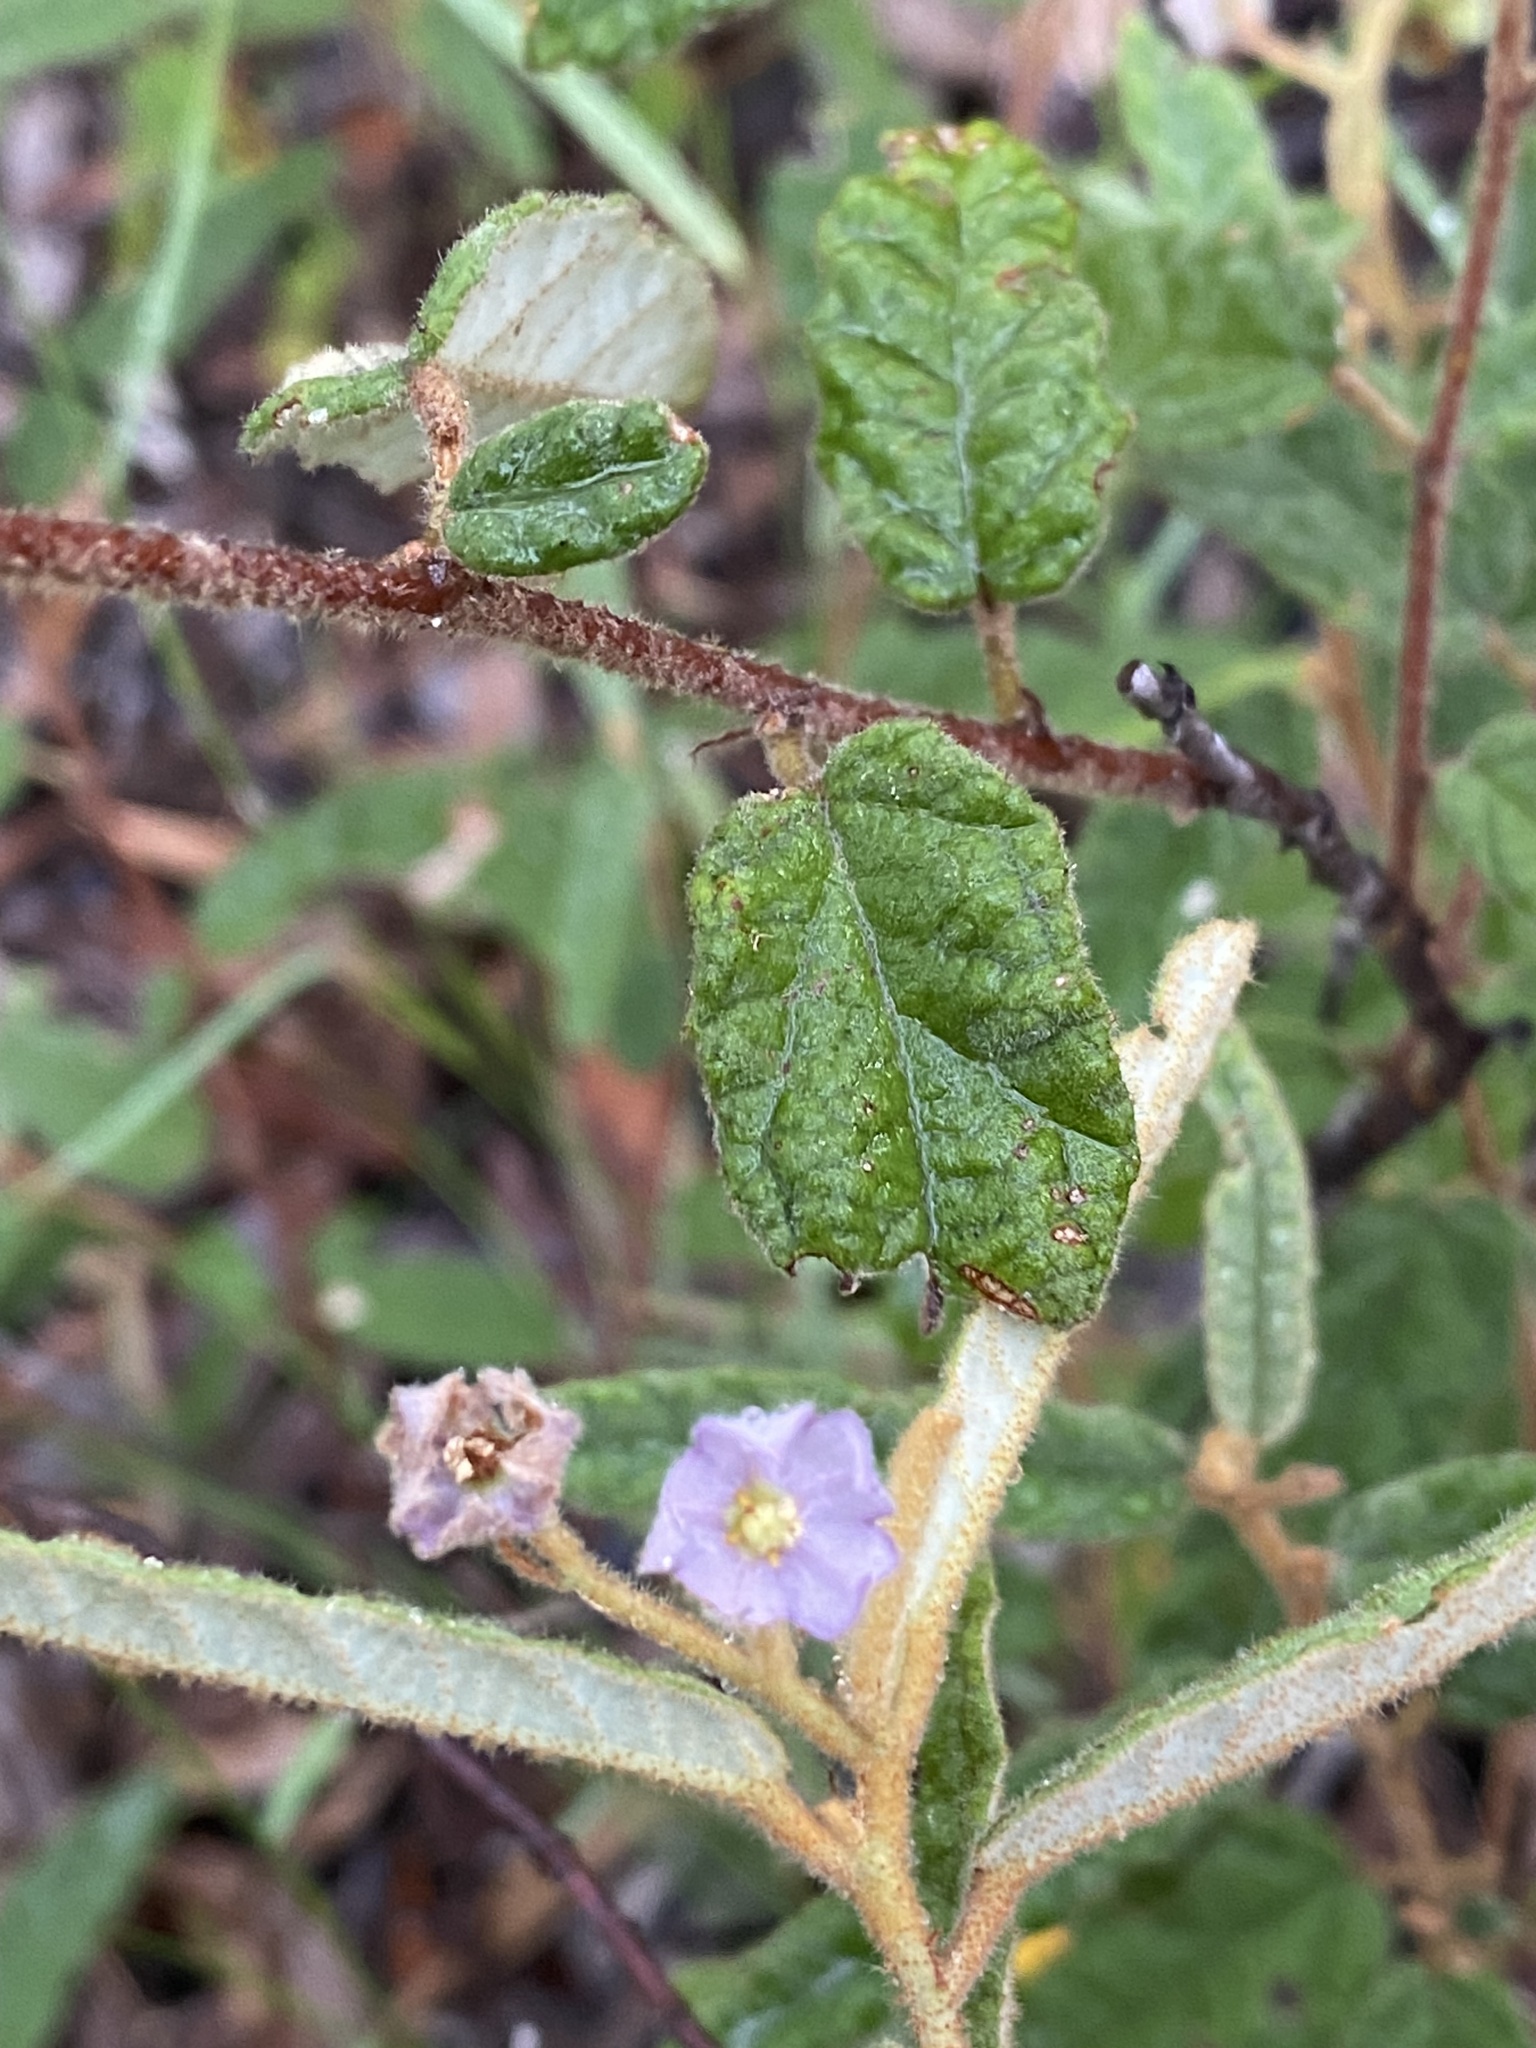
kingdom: Plantae
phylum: Tracheophyta
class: Magnoliopsida
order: Malvales
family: Malvaceae
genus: Seringia
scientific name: Seringia corollata
